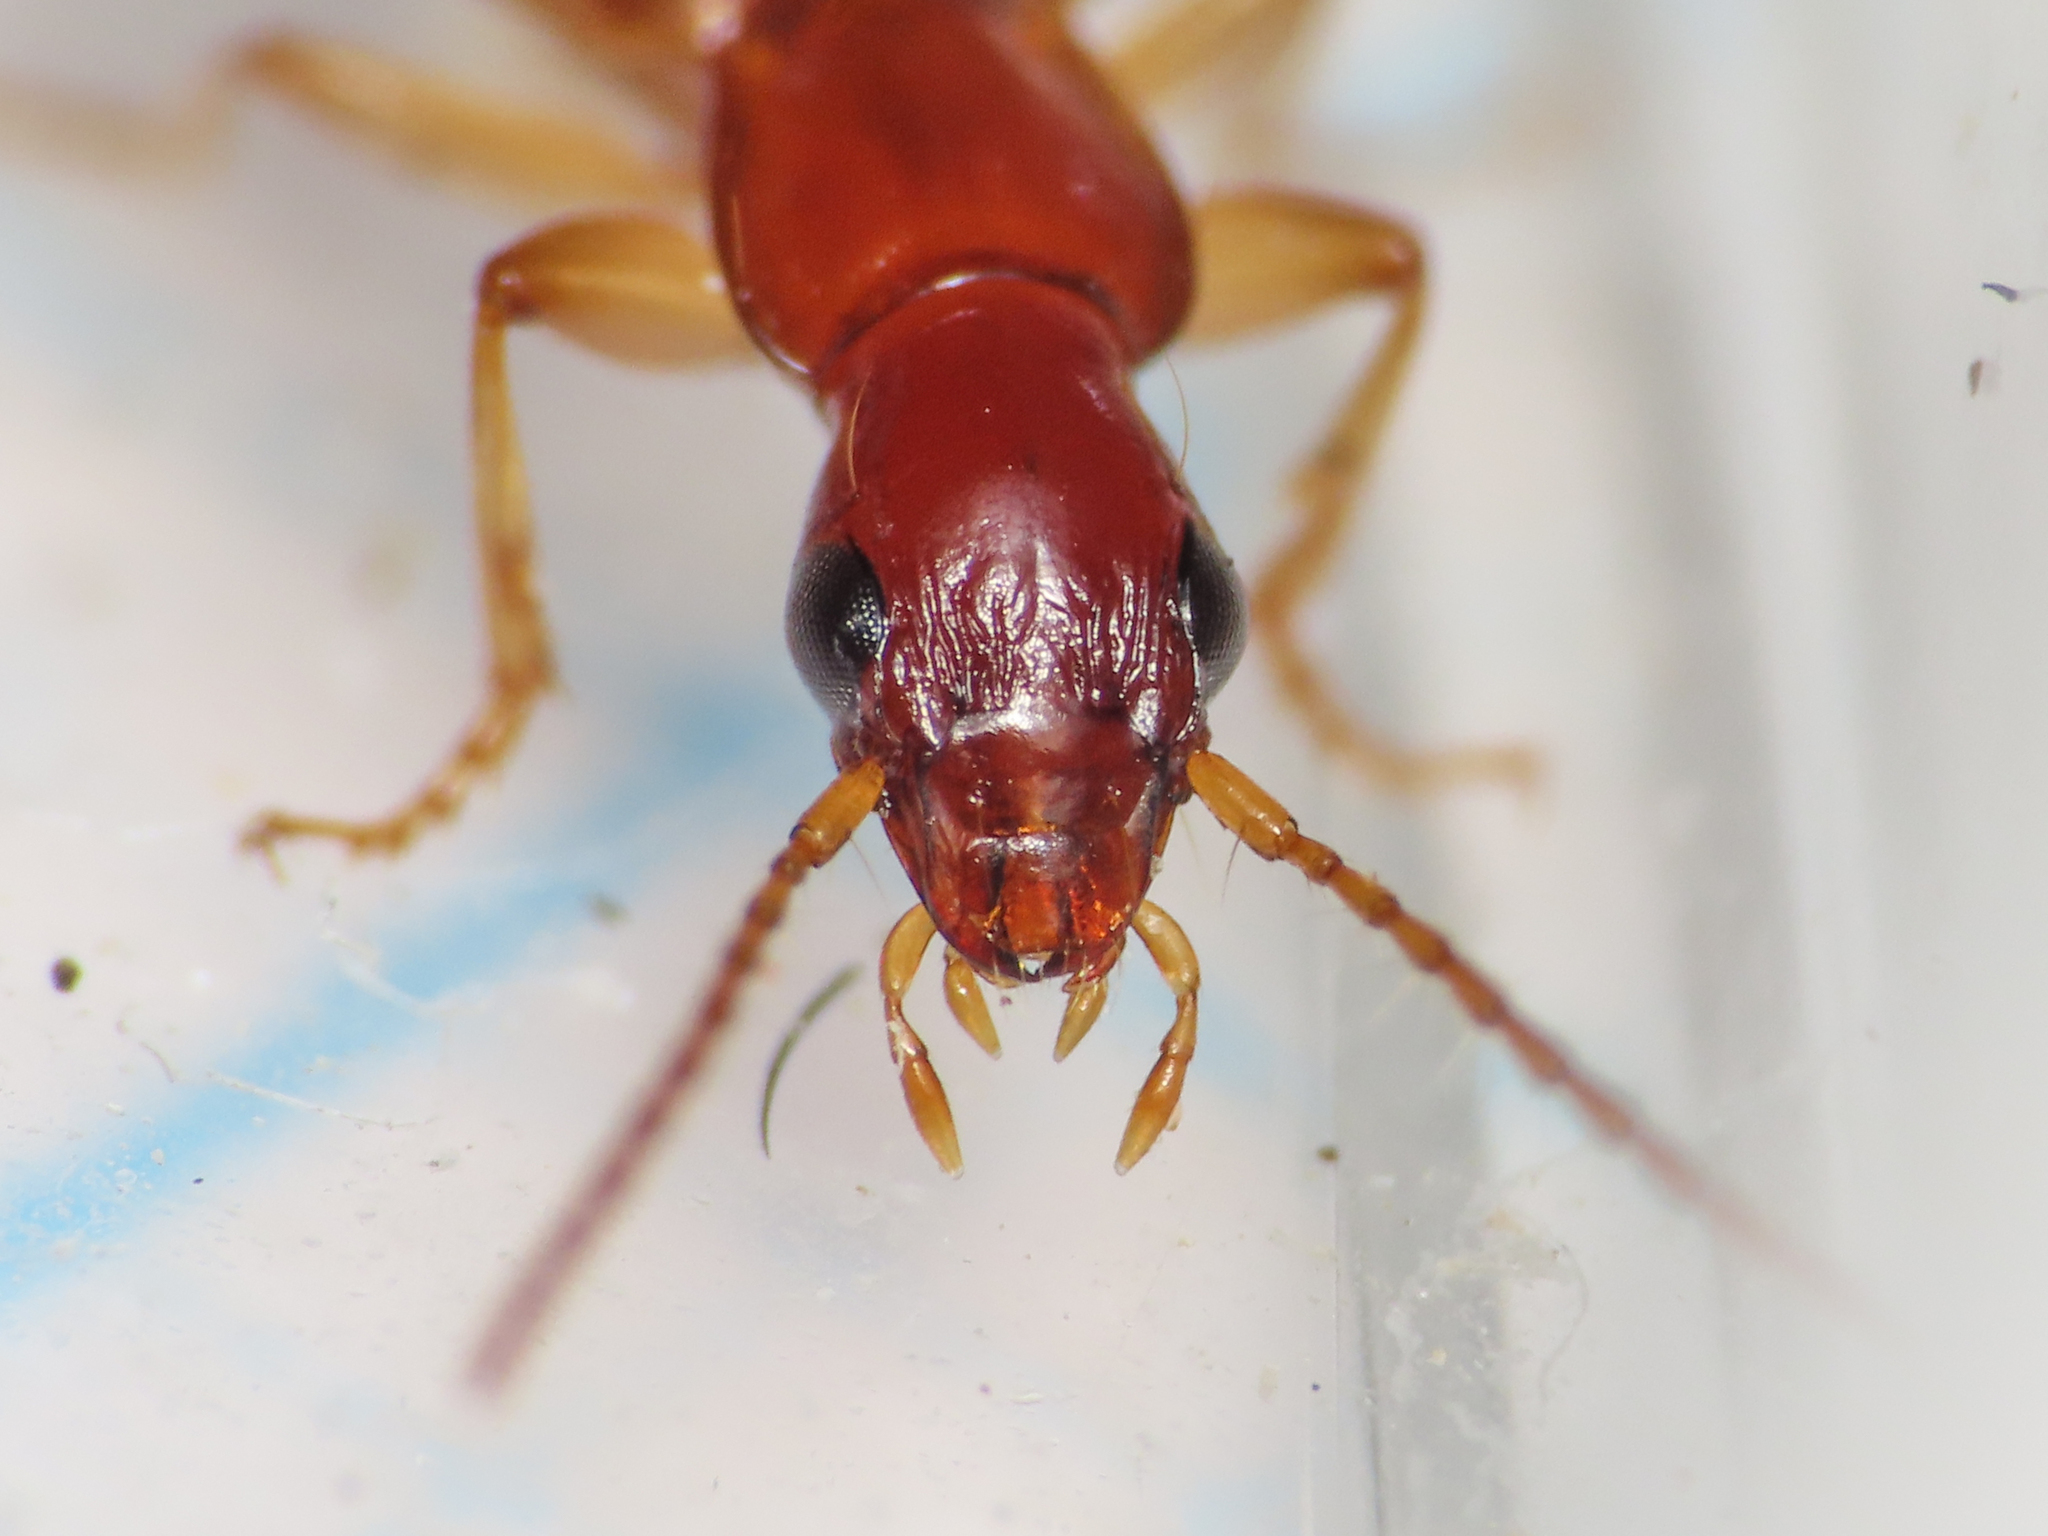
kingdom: Animalia
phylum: Arthropoda
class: Insecta
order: Coleoptera
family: Carabidae
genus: Paradromius
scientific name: Paradromius linearis
